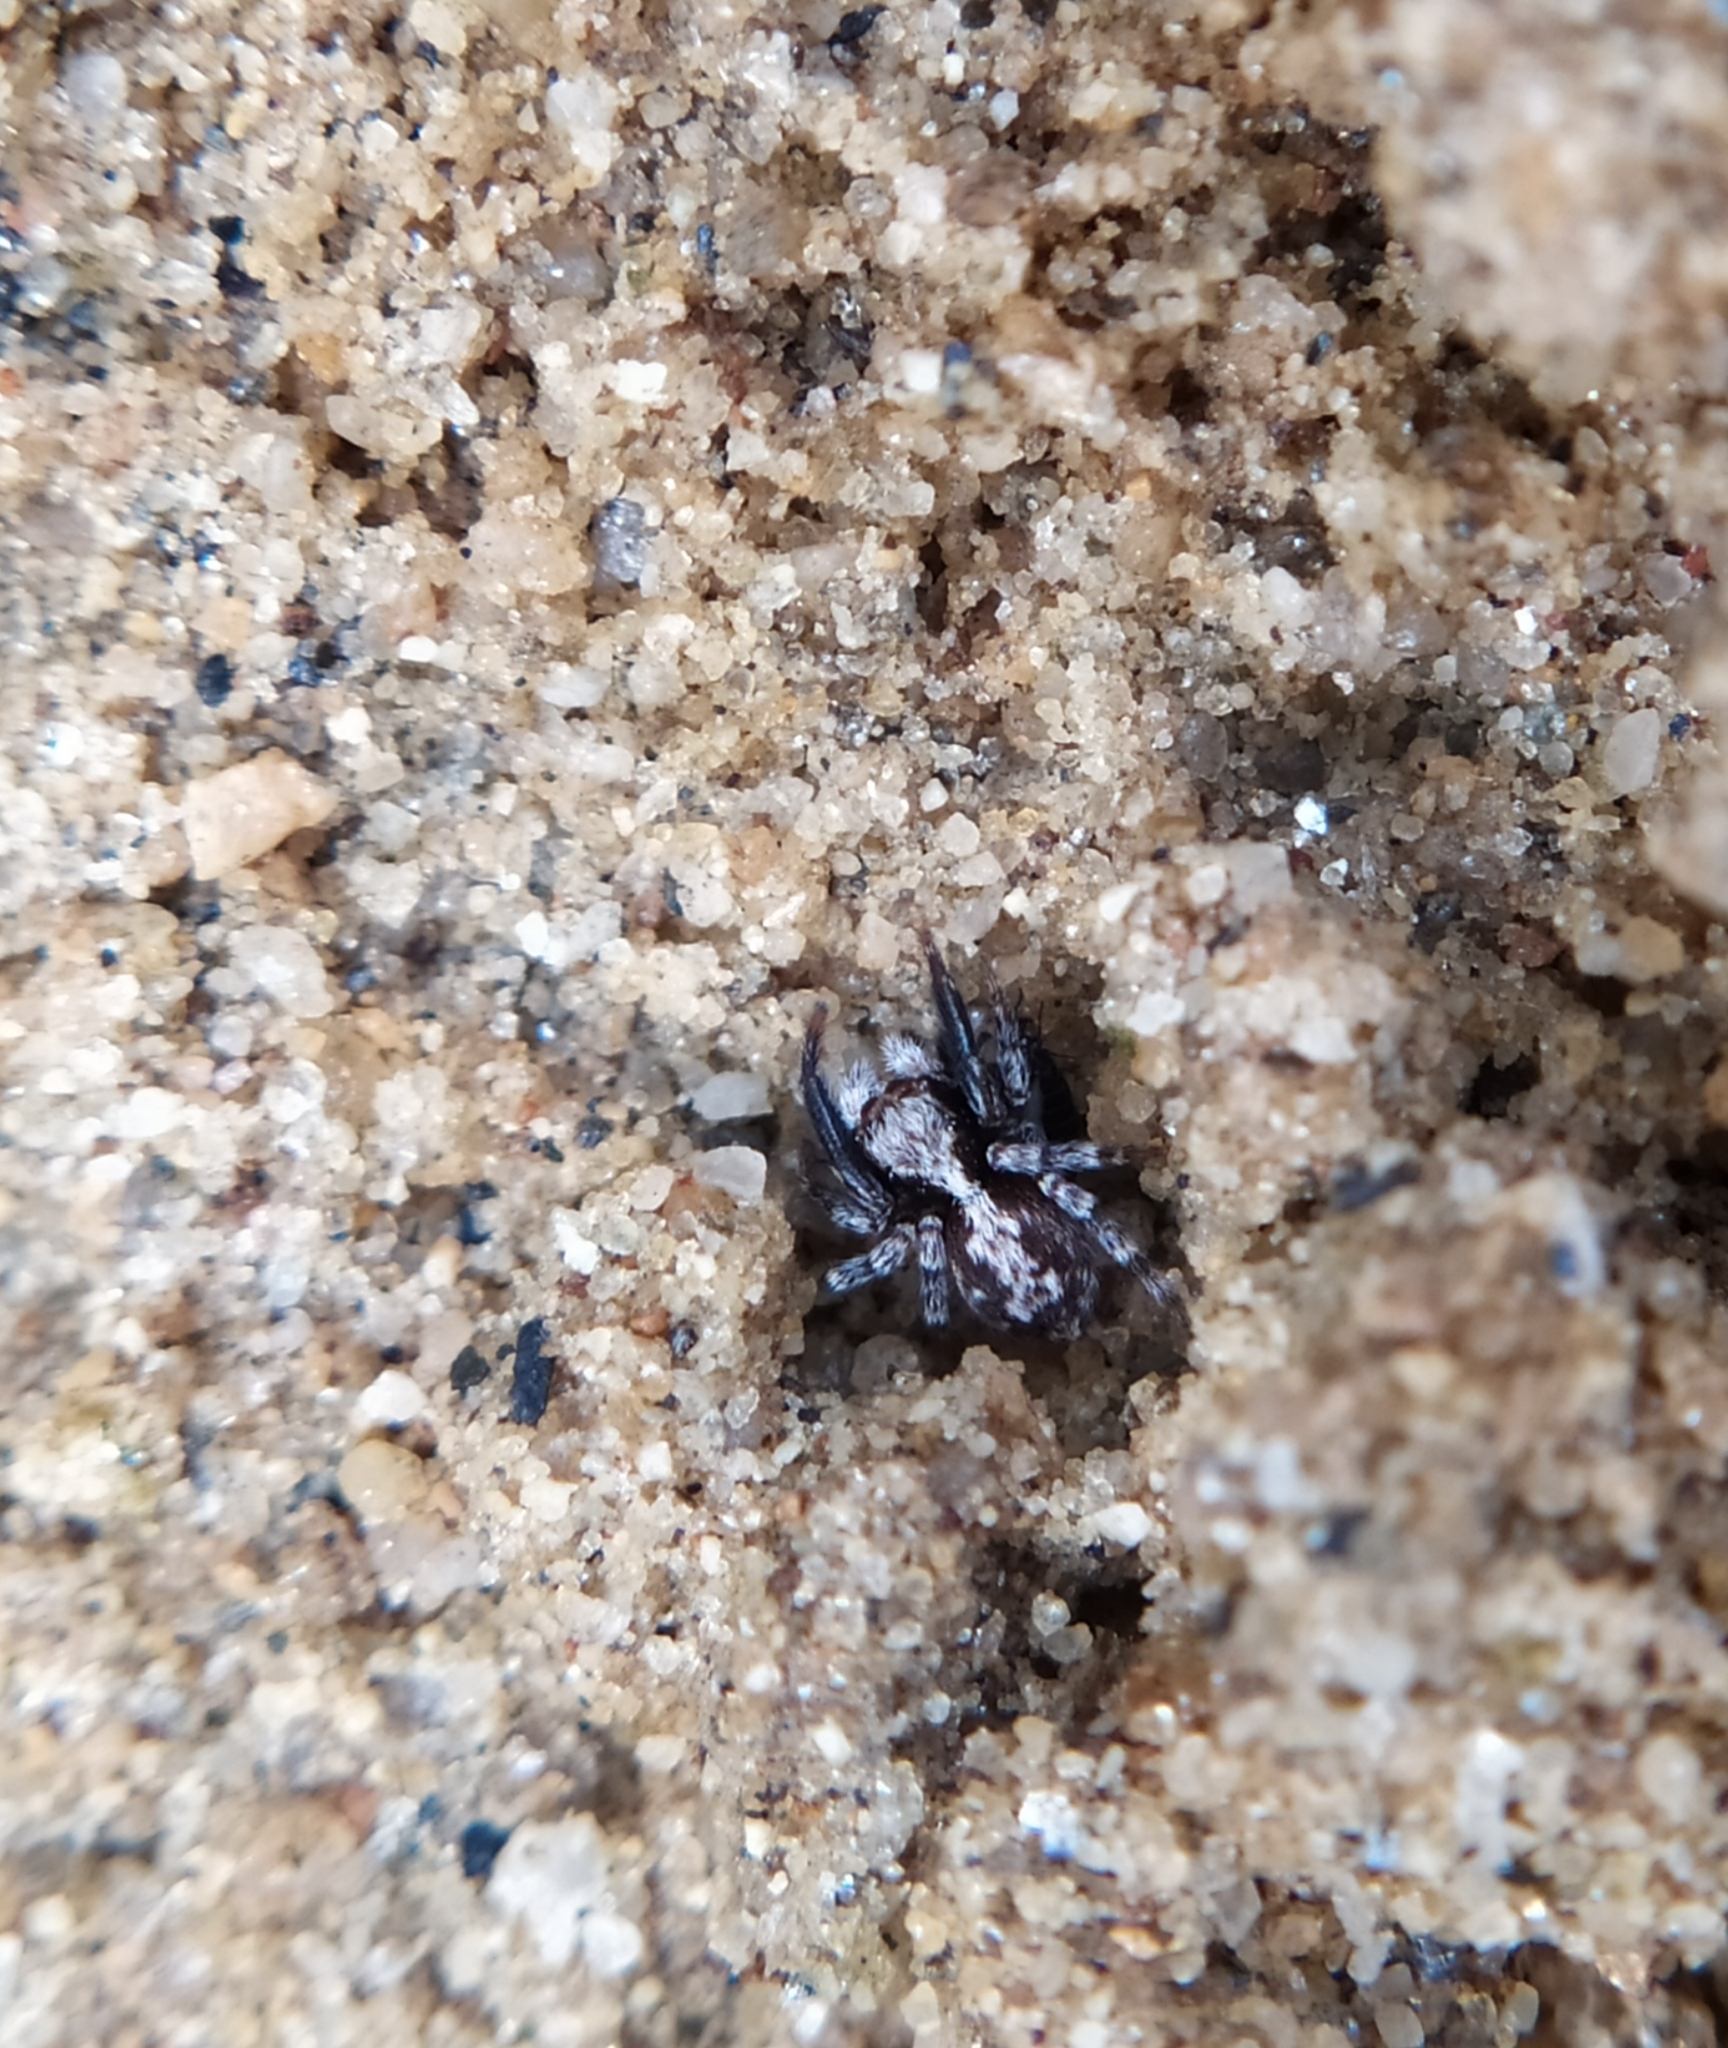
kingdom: Animalia
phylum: Arthropoda
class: Arachnida
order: Araneae
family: Salticidae
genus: Pseudeuophrys
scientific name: Pseudeuophrys lanigera
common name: Jumping spider
